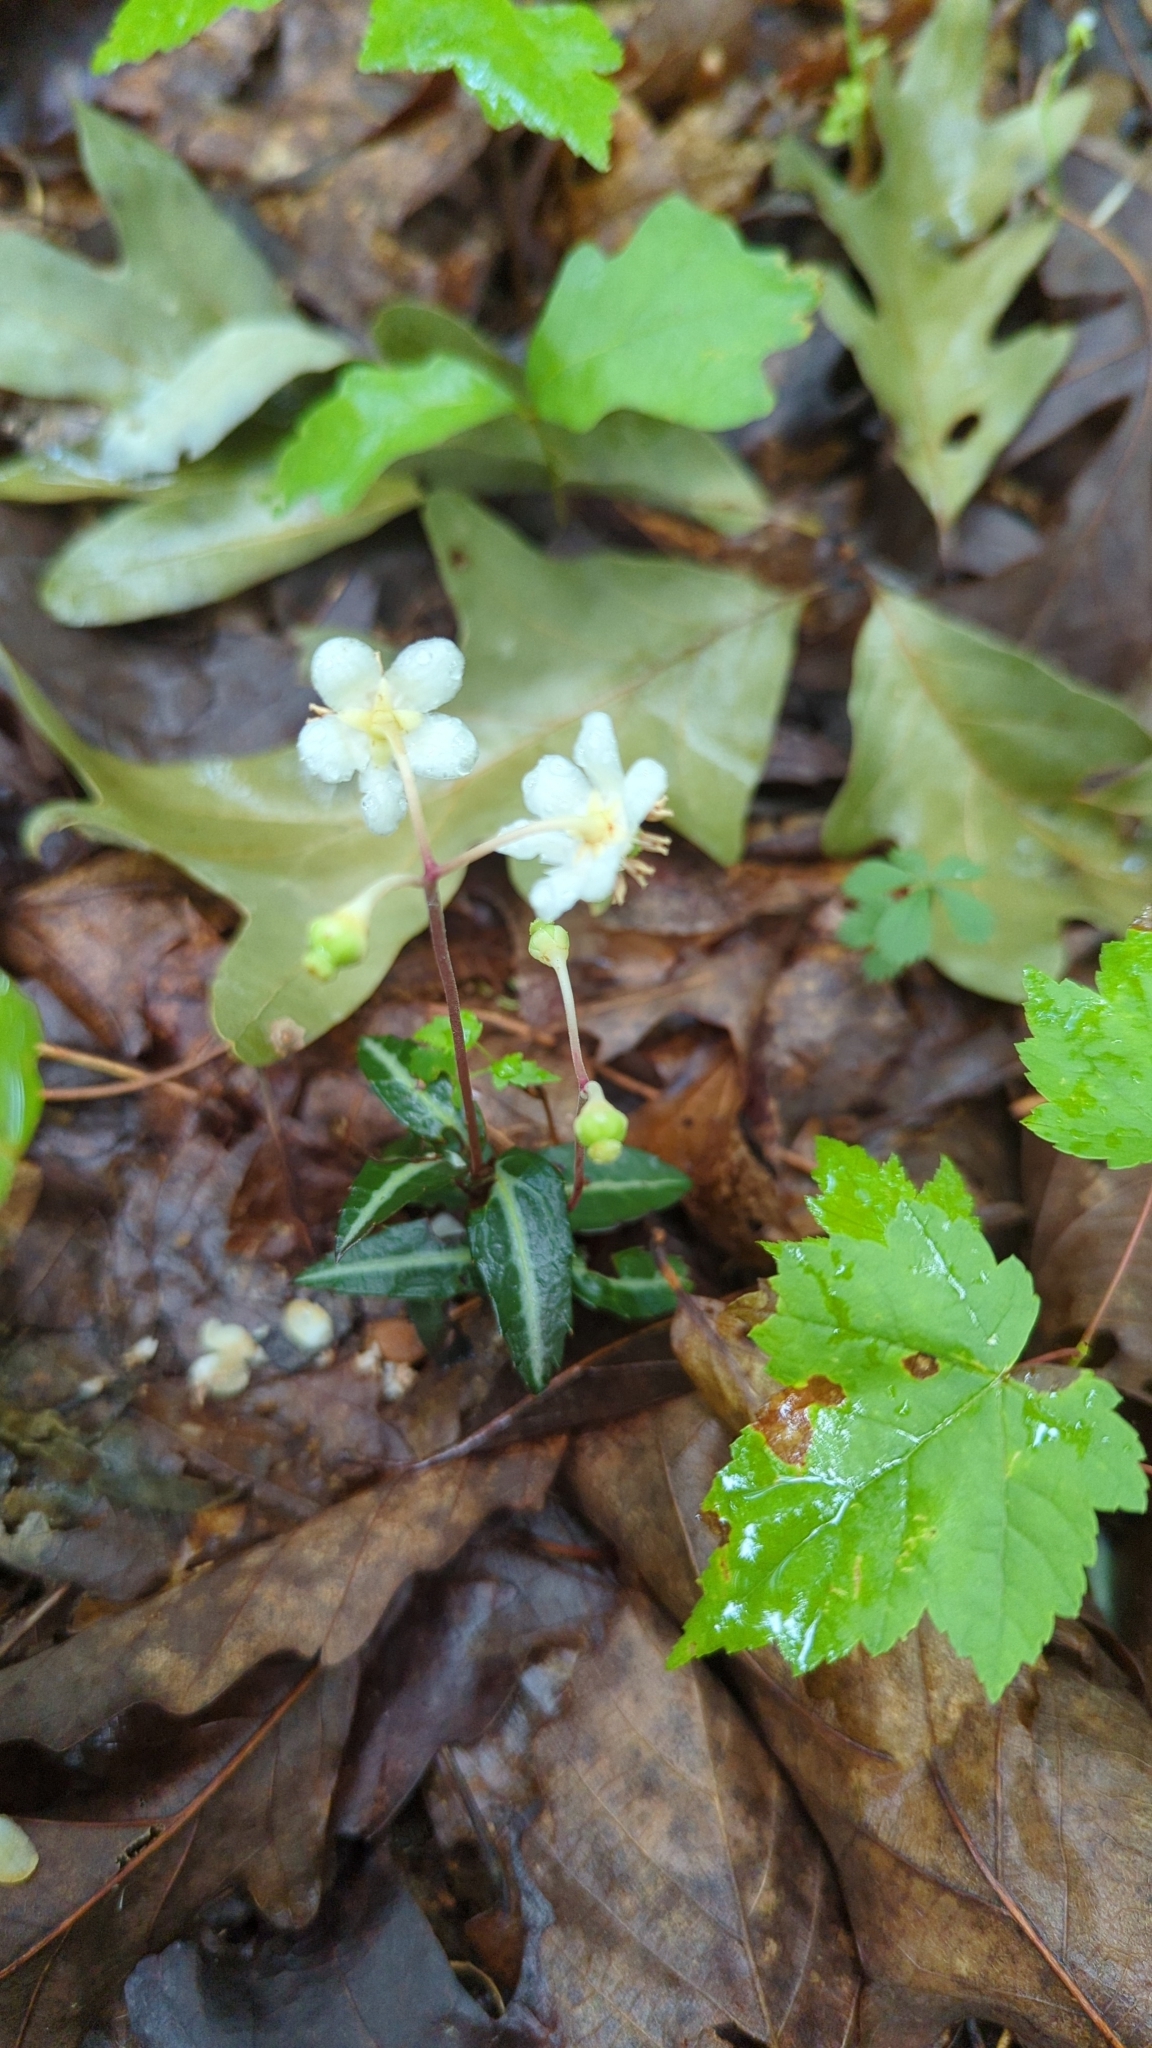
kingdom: Plantae
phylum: Tracheophyta
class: Magnoliopsida
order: Ericales
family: Ericaceae
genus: Chimaphila
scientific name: Chimaphila maculata
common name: Spotted pipsissewa
